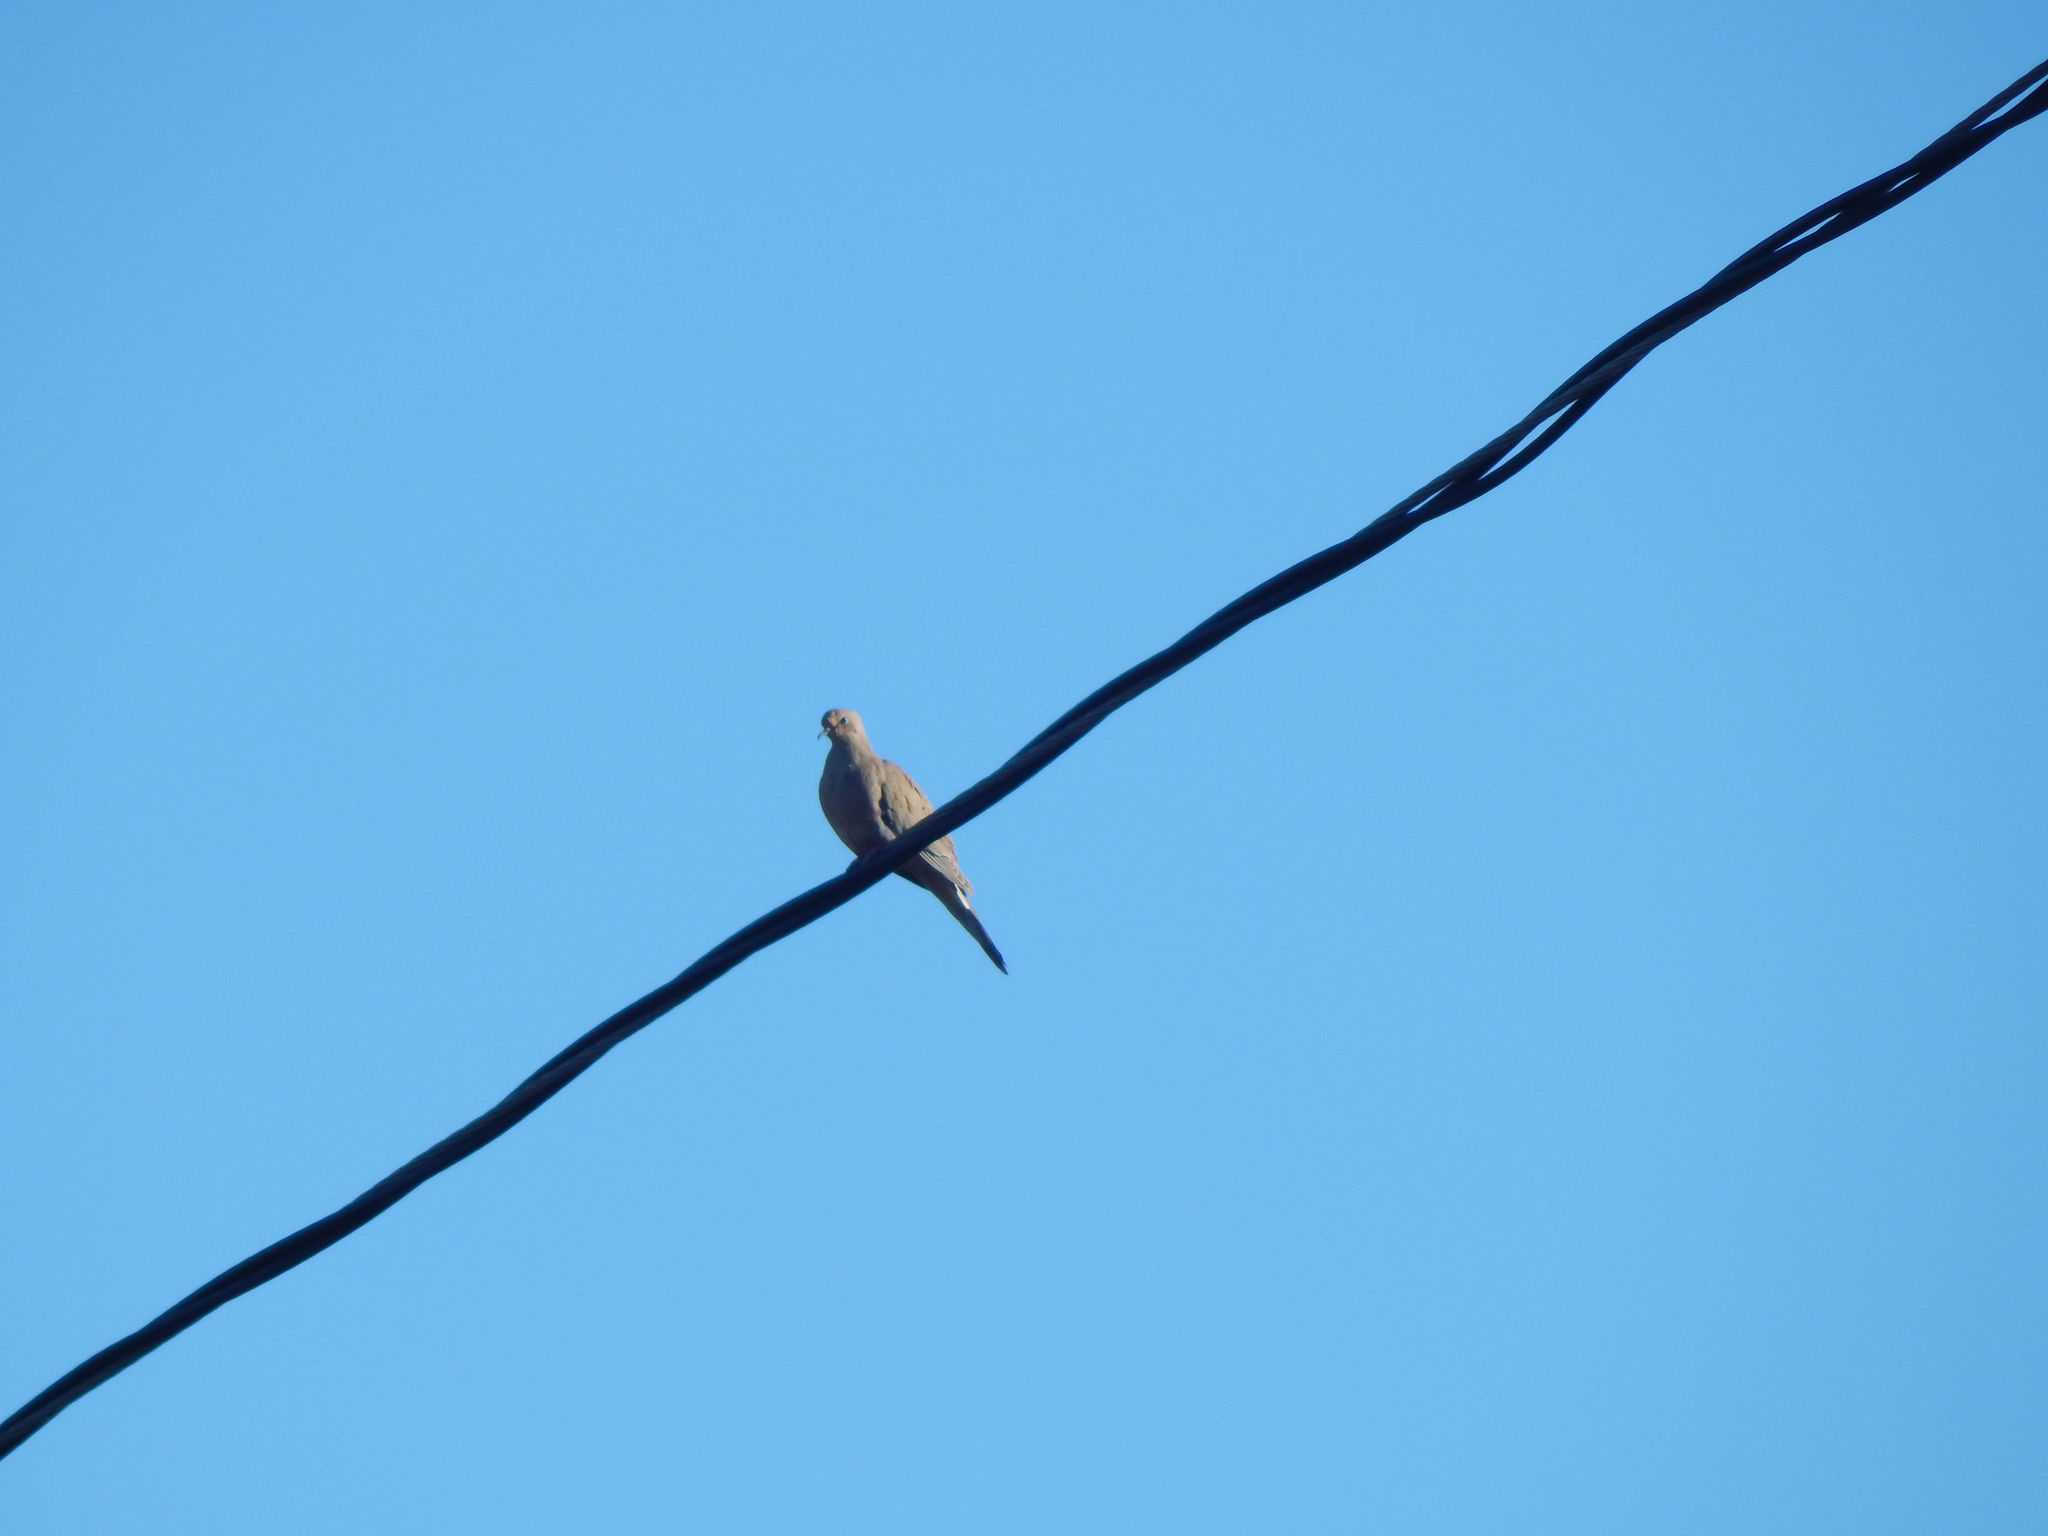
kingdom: Animalia
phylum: Chordata
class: Aves
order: Columbiformes
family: Columbidae
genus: Zenaida
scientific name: Zenaida macroura
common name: Mourning dove
